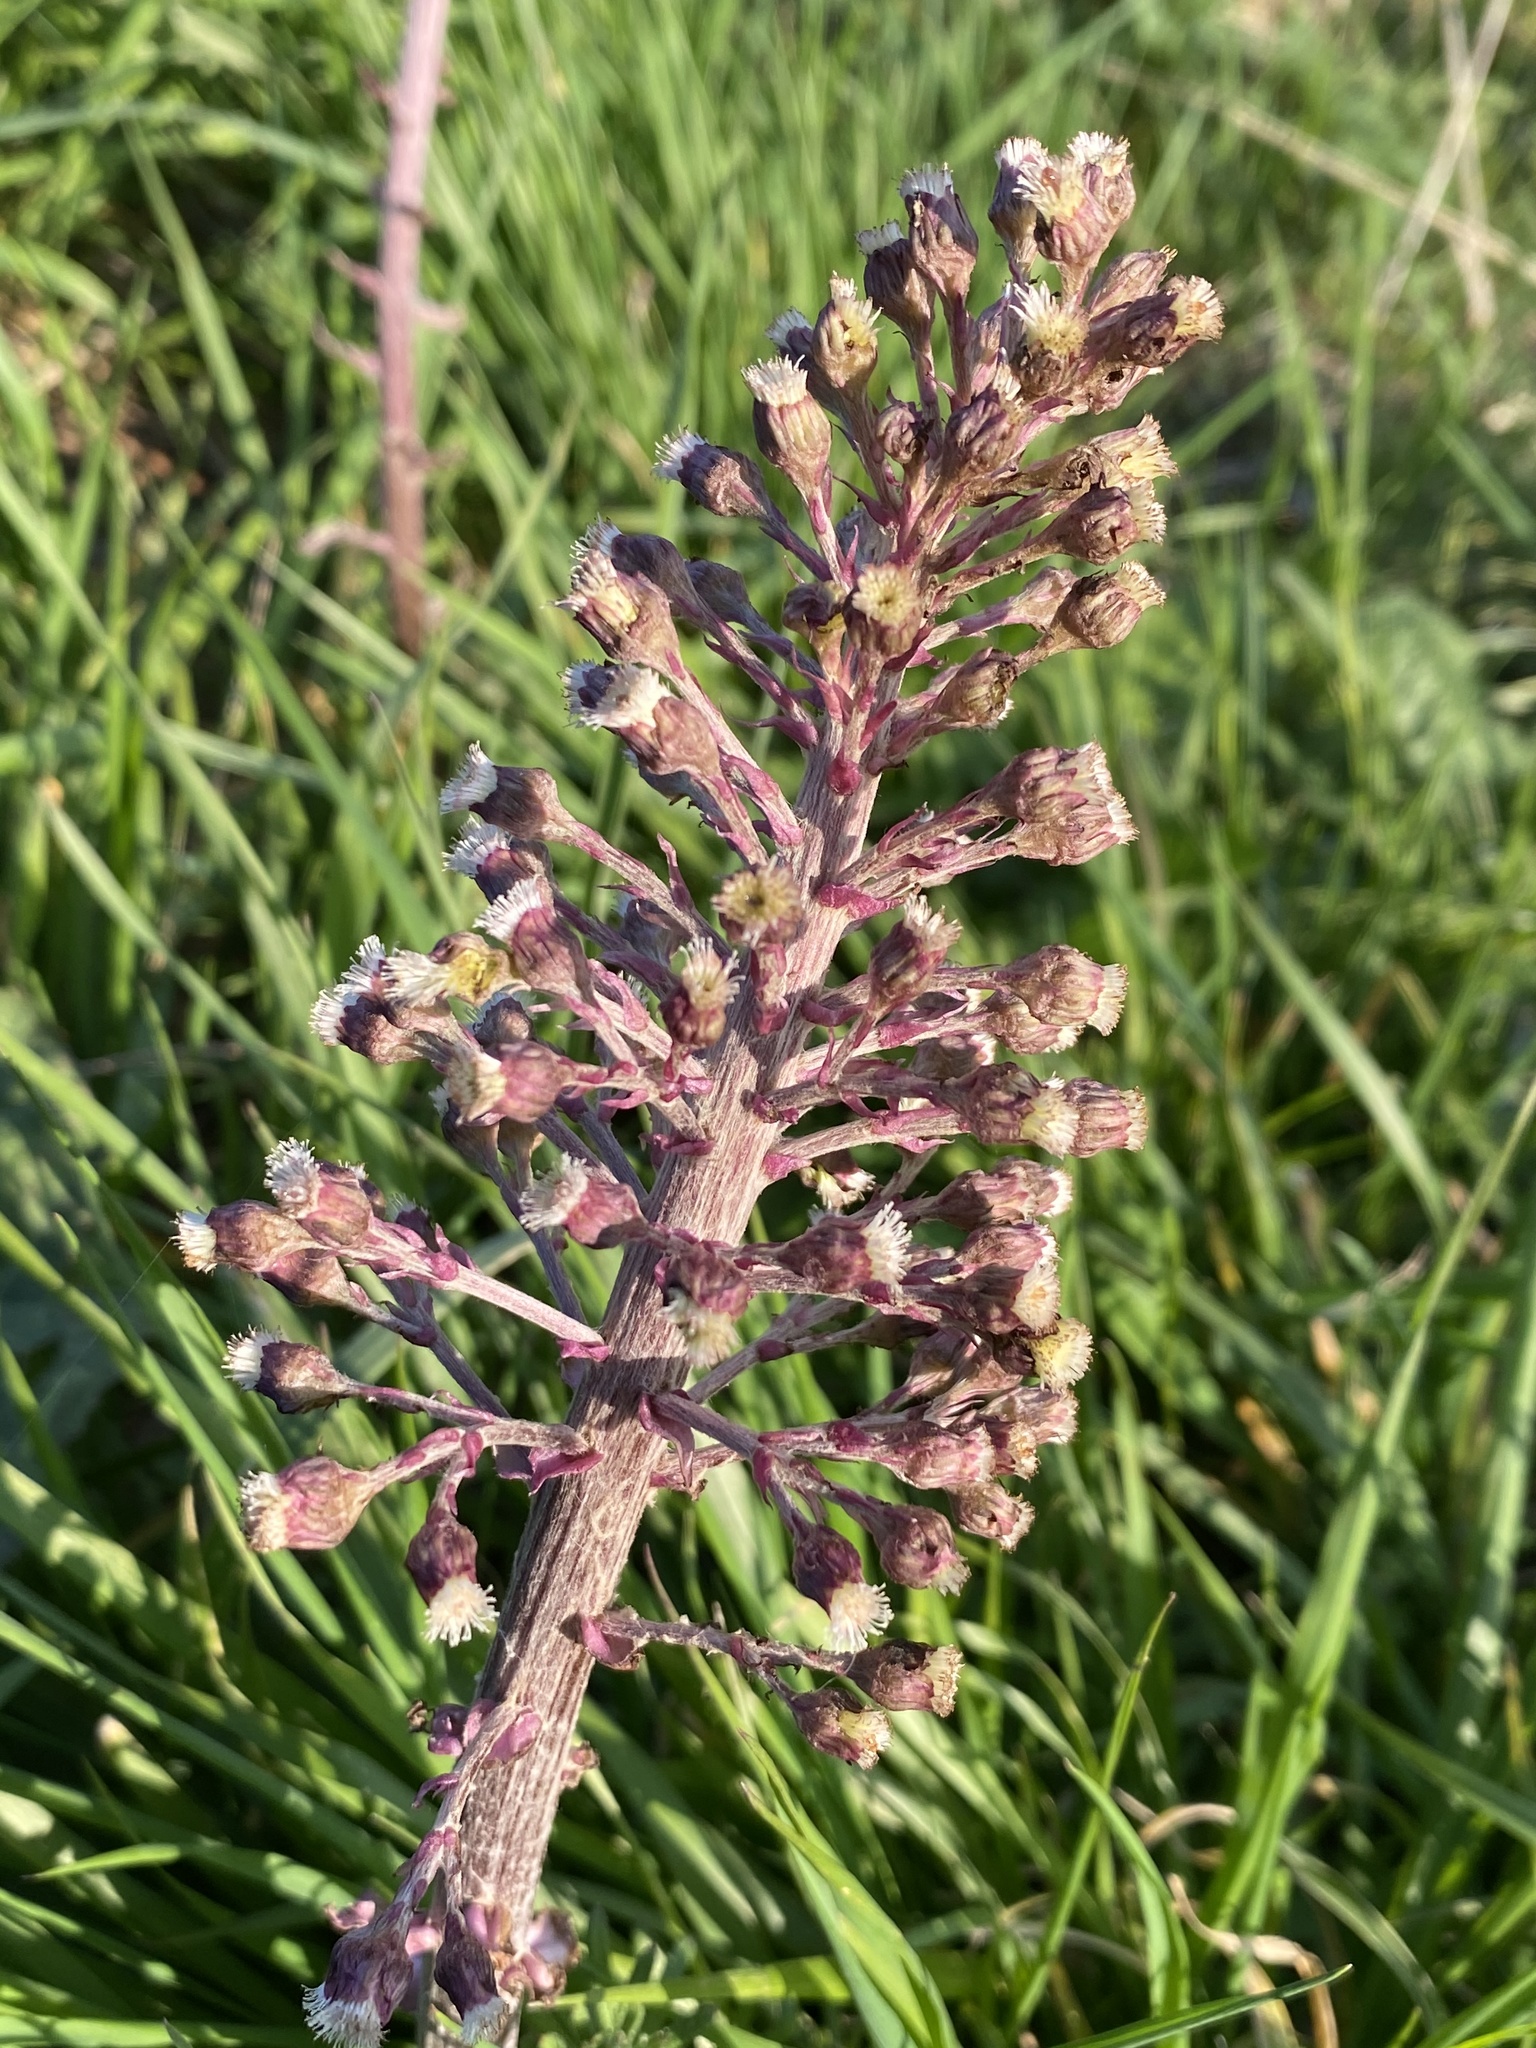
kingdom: Plantae
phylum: Tracheophyta
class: Magnoliopsida
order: Asterales
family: Asteraceae
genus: Petasites
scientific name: Petasites hybridus
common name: Butterbur
